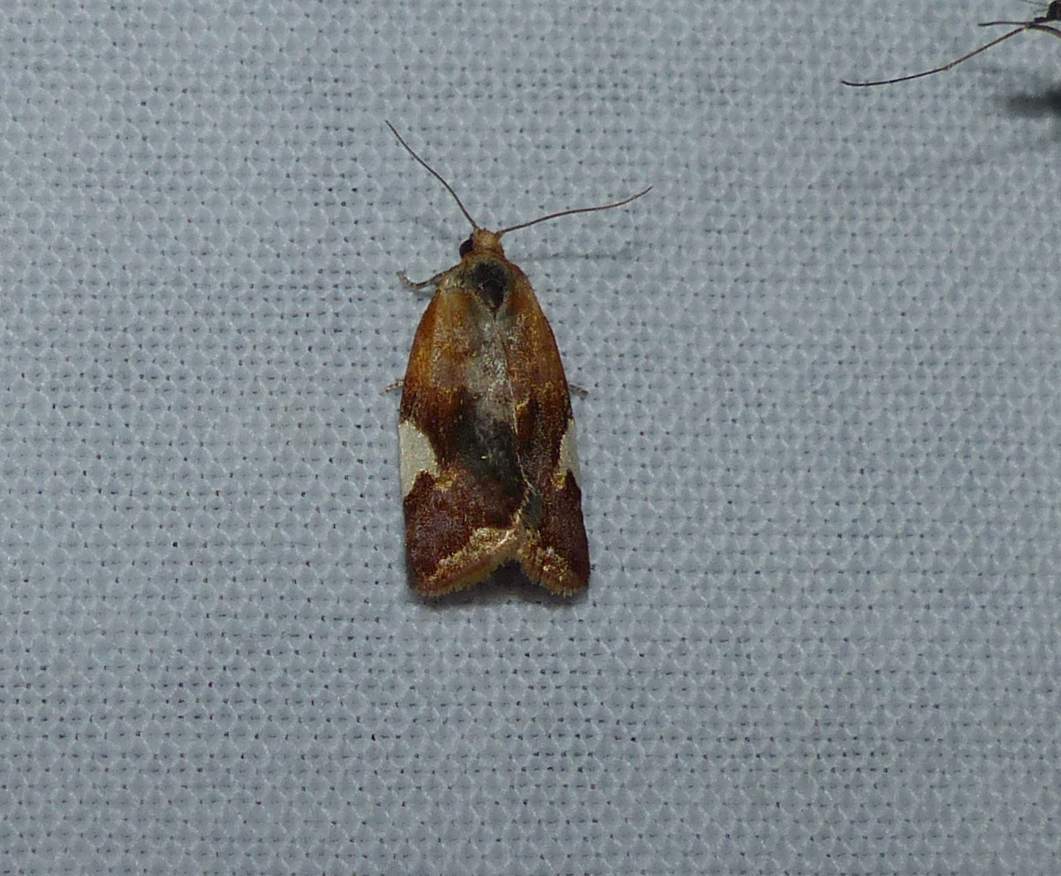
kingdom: Animalia
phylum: Arthropoda
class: Insecta
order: Lepidoptera
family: Tortricidae
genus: Clepsis
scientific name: Clepsis persicana
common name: White triangle tortrix
